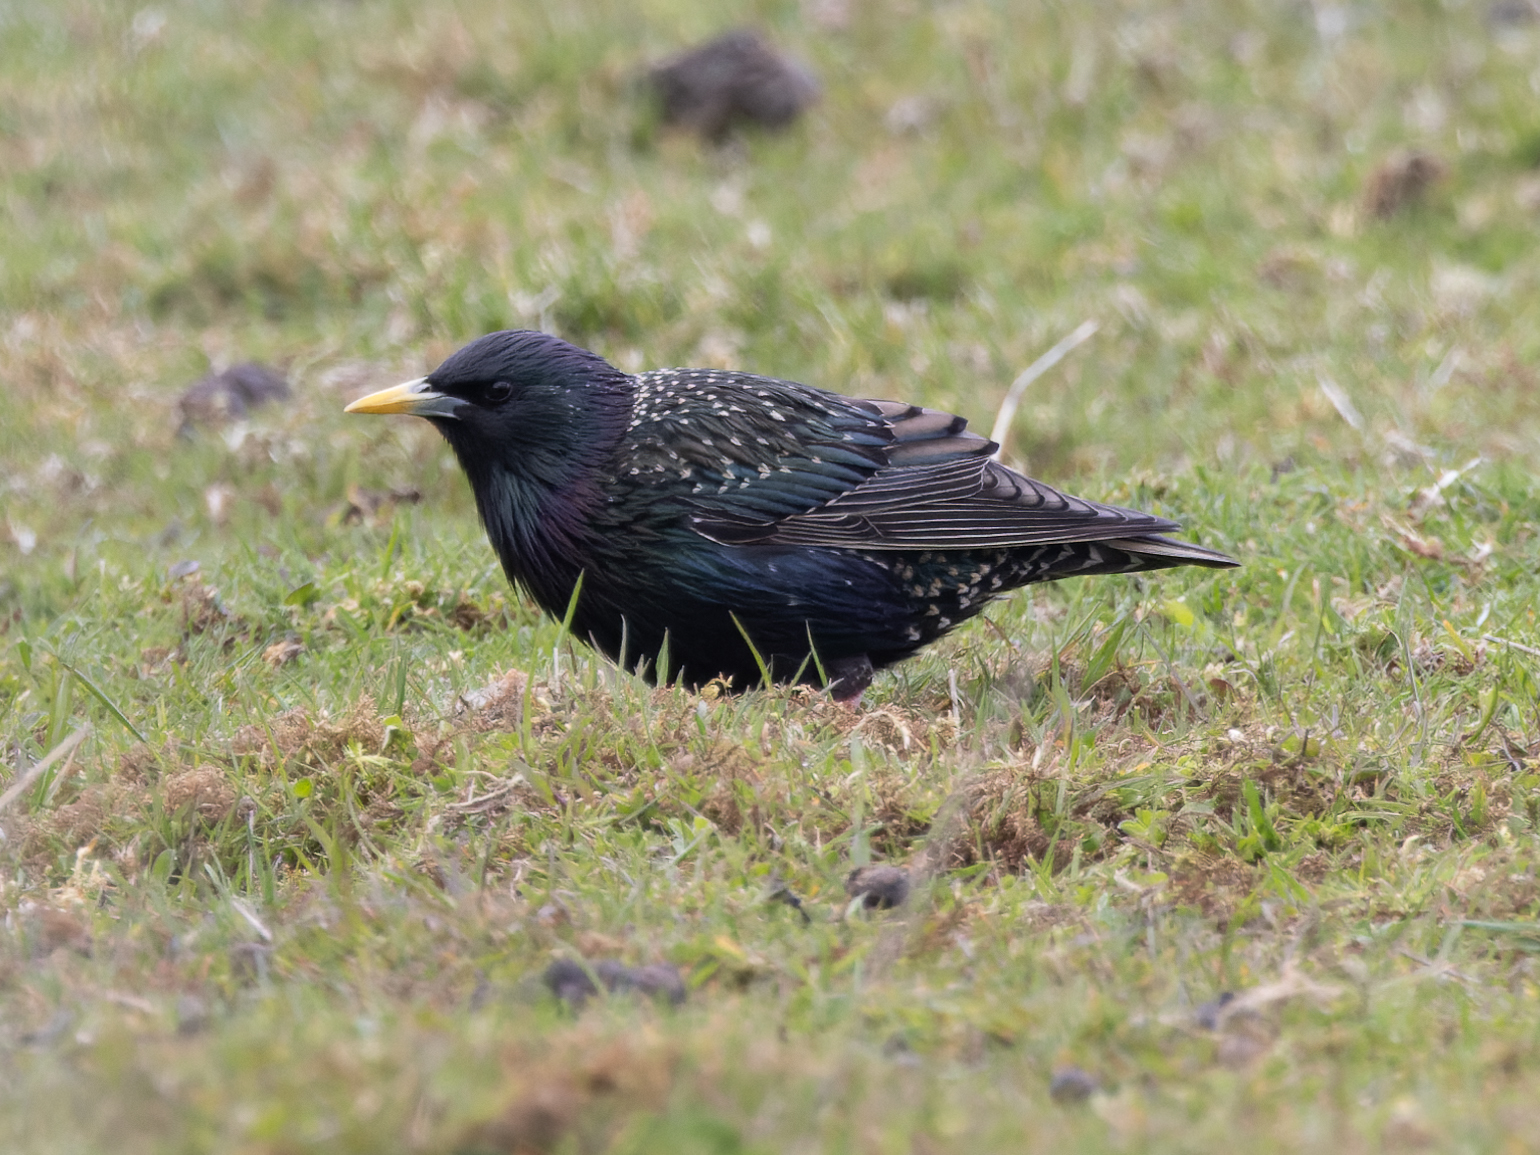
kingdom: Animalia
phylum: Chordata
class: Aves
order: Passeriformes
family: Sturnidae
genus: Sturnus
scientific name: Sturnus vulgaris
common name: Common starling
